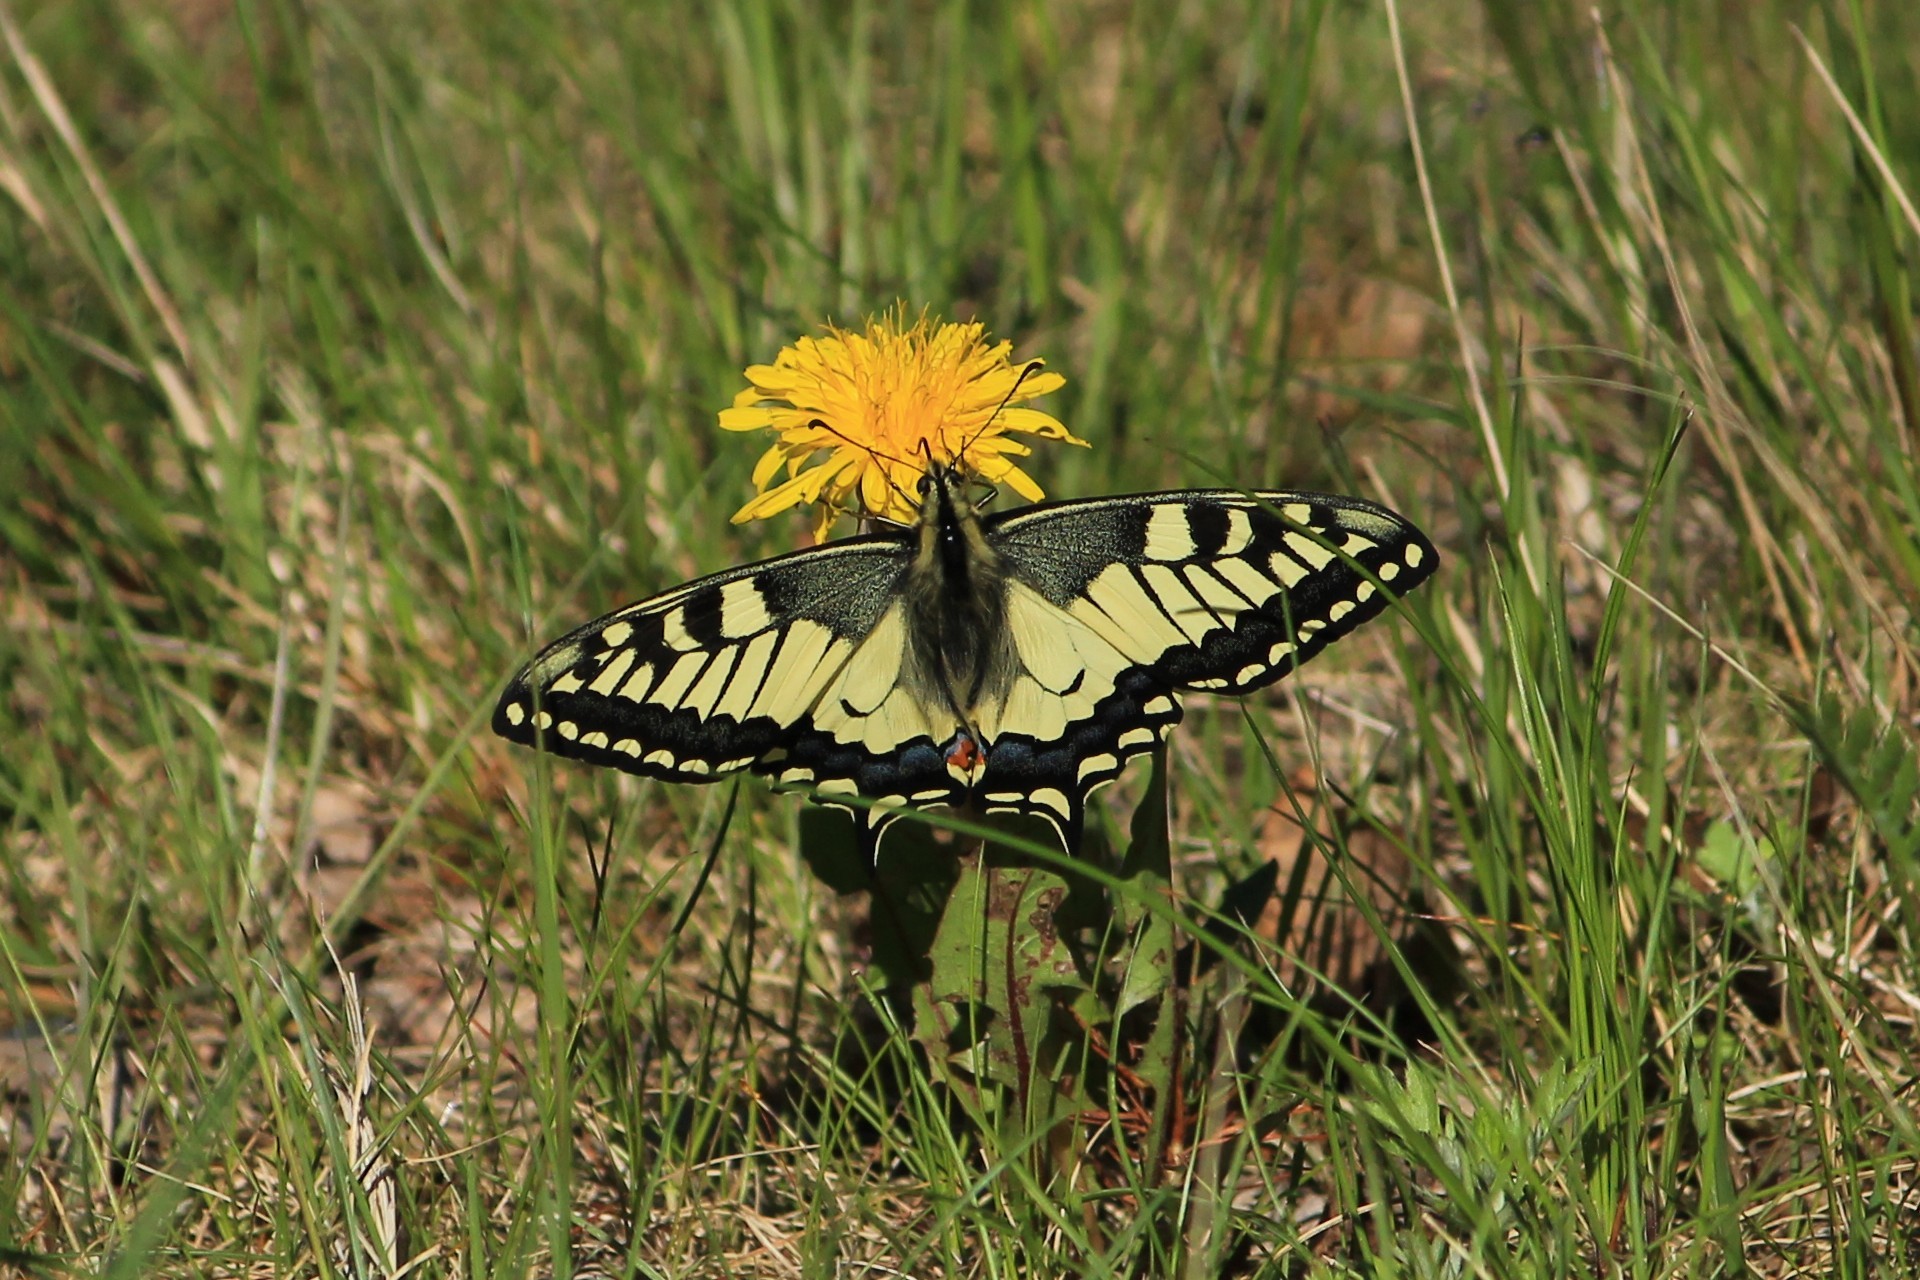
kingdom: Animalia
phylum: Arthropoda
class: Insecta
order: Lepidoptera
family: Papilionidae
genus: Papilio
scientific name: Papilio machaon
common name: Swallowtail
